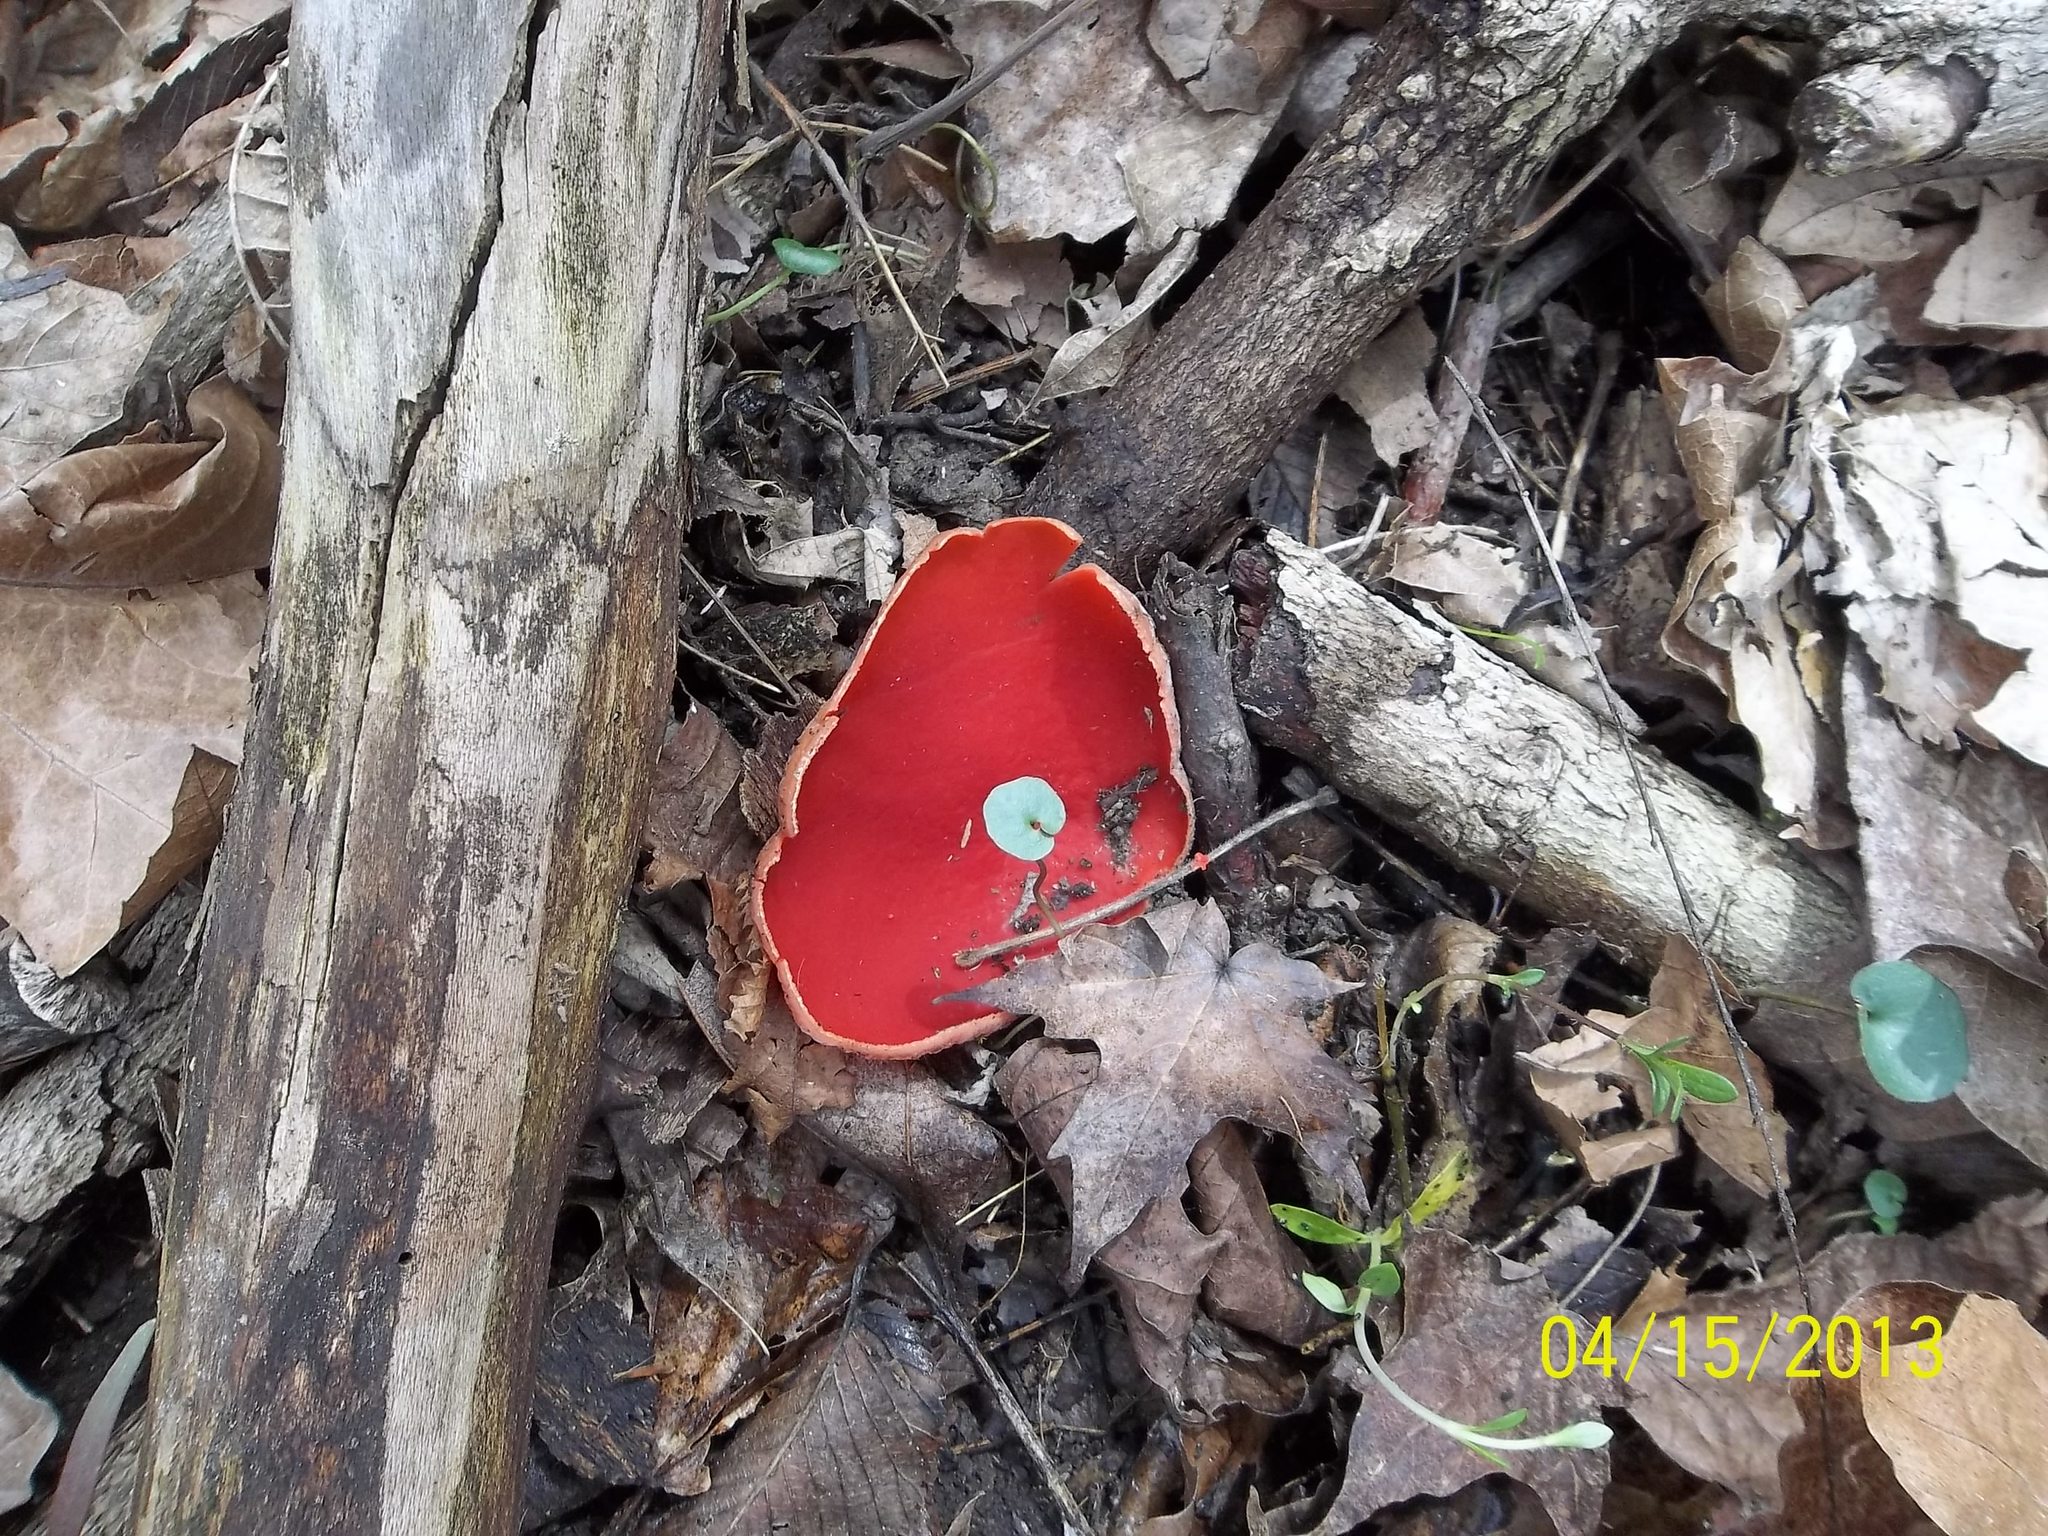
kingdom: Fungi
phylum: Ascomycota
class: Pezizomycetes
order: Pezizales
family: Sarcoscyphaceae
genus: Sarcoscypha
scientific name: Sarcoscypha
